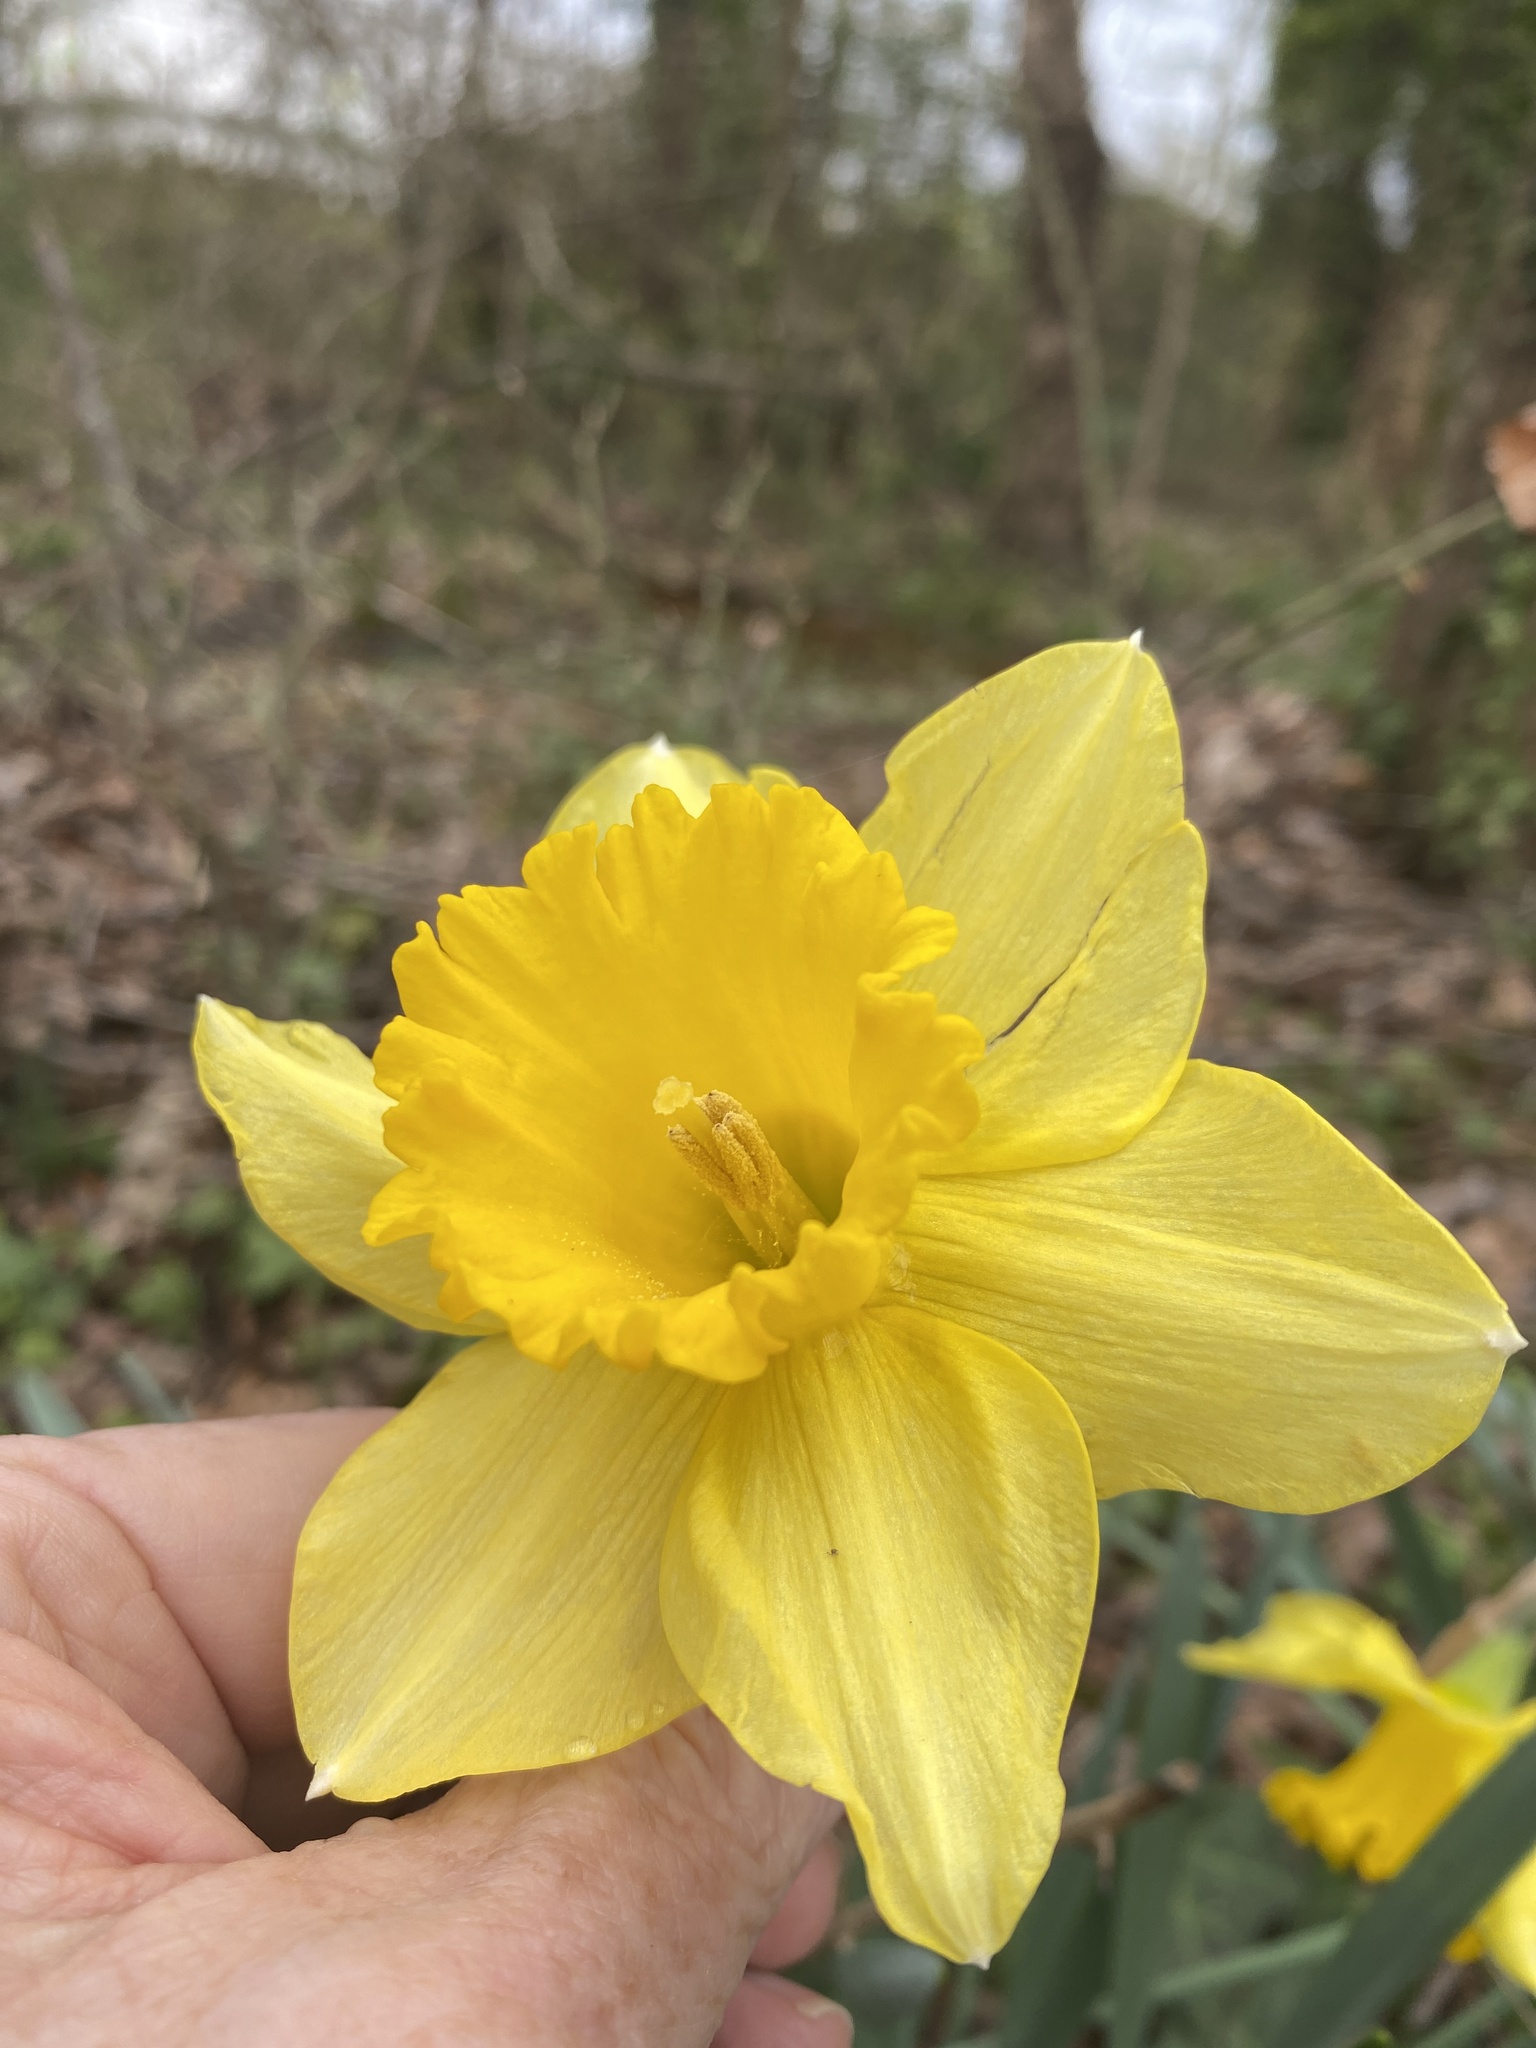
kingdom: Plantae
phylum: Tracheophyta
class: Liliopsida
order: Asparagales
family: Amaryllidaceae
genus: Narcissus
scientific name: Narcissus pseudonarcissus
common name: Daffodil
